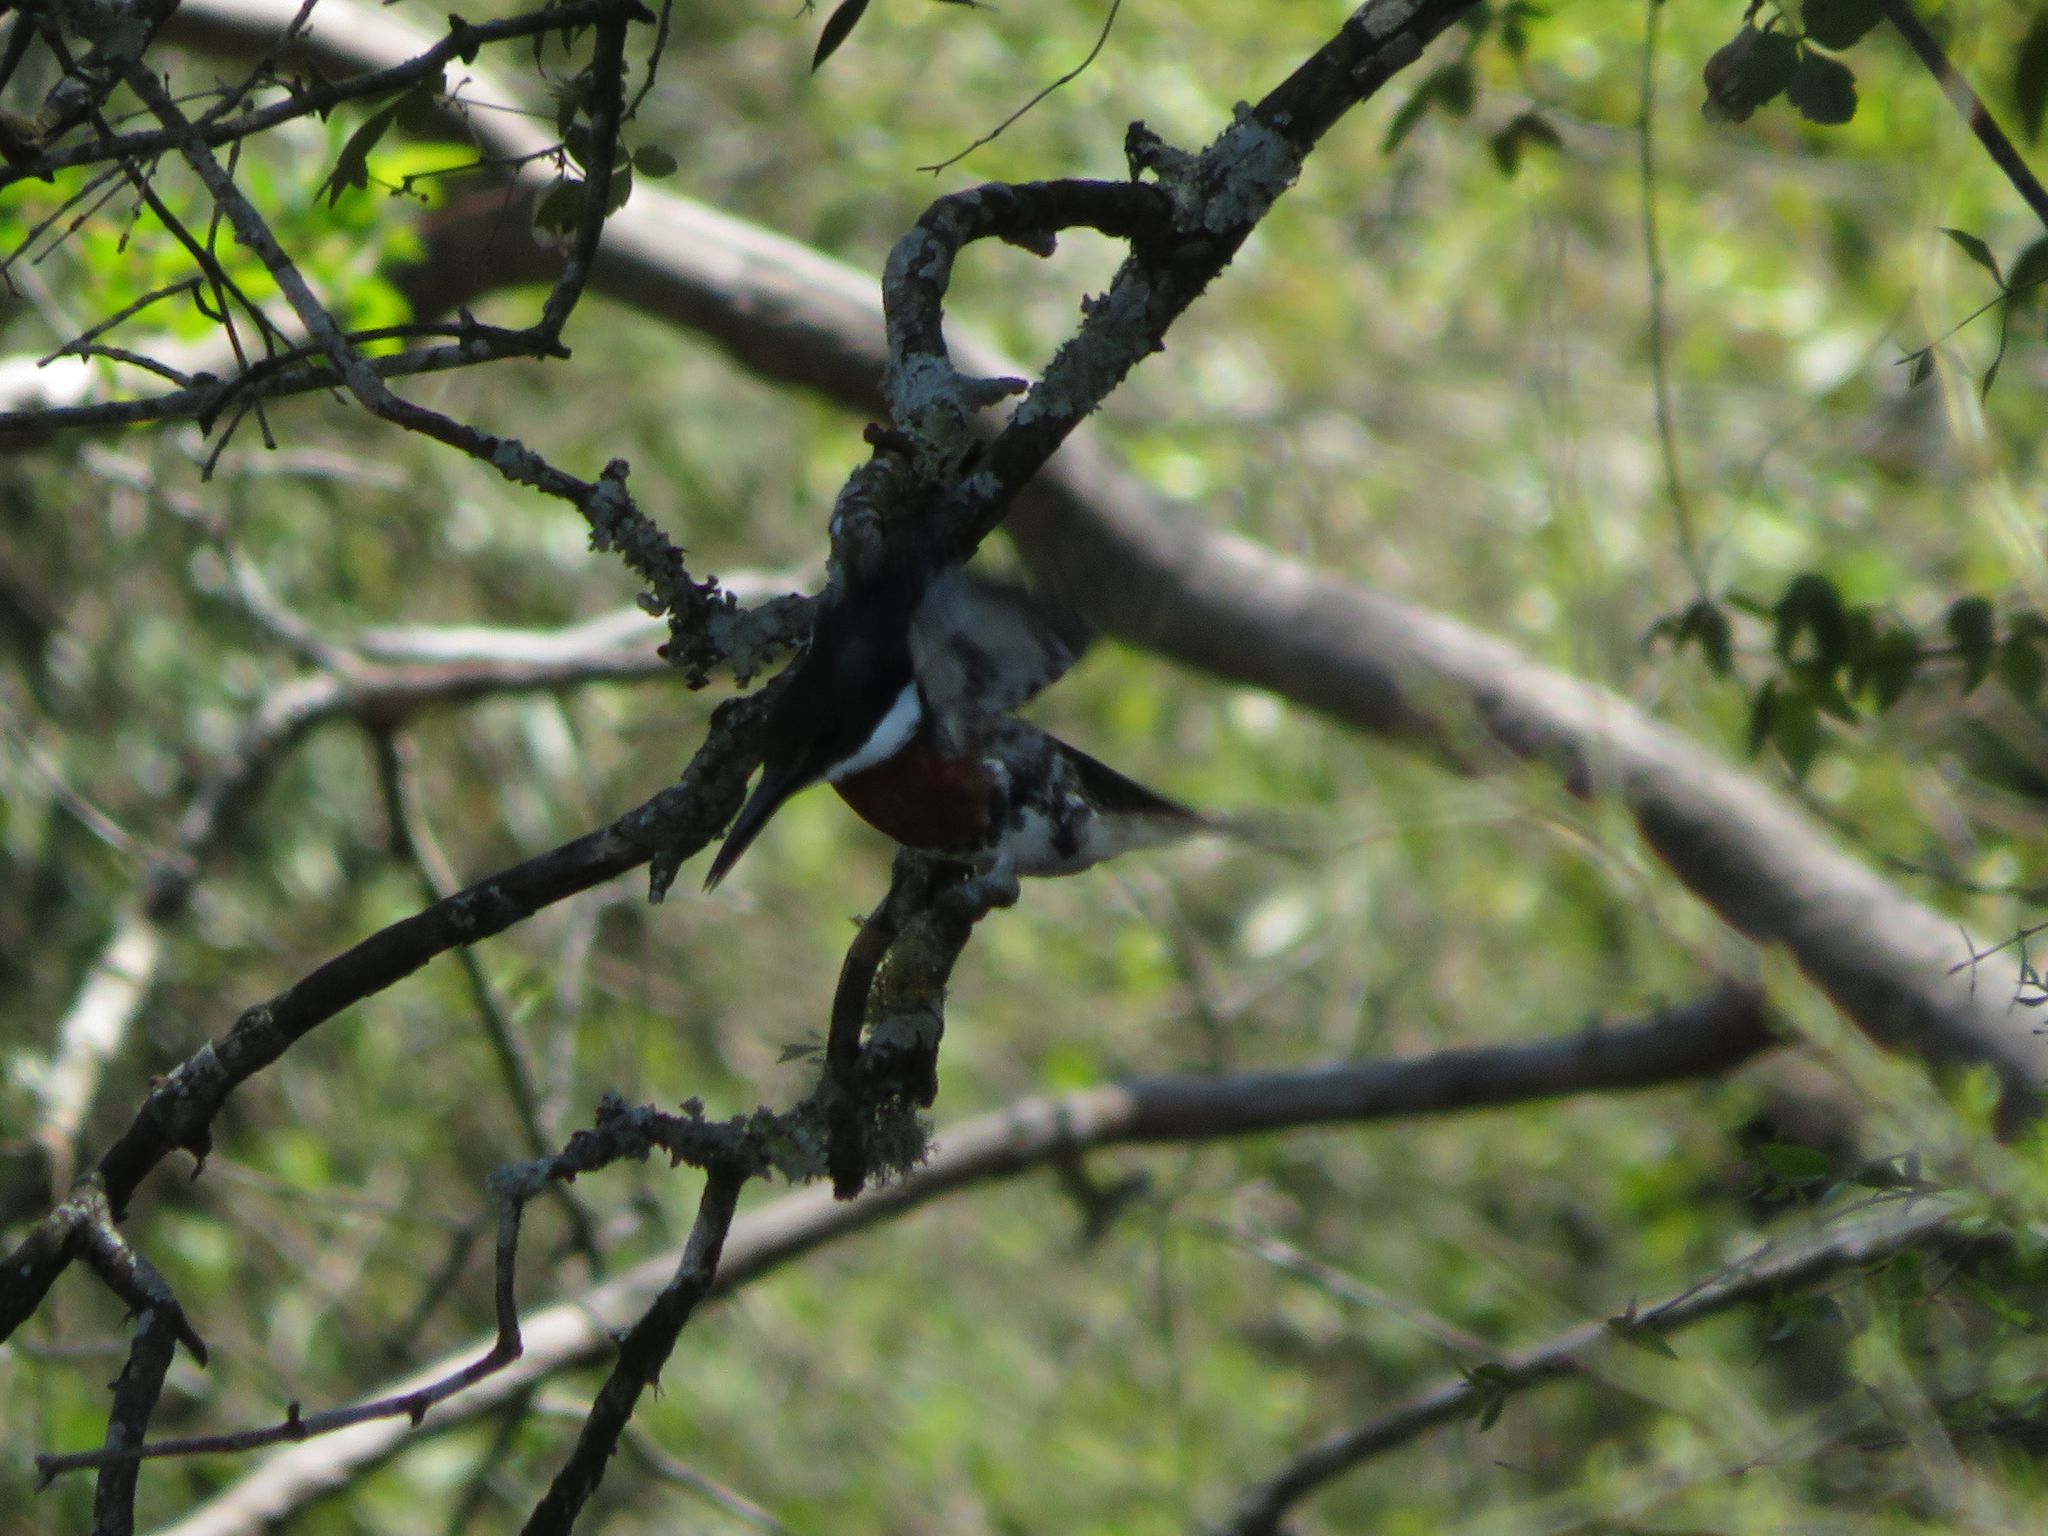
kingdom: Animalia
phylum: Chordata
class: Aves
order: Coraciiformes
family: Alcedinidae
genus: Chloroceryle
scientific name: Chloroceryle americana
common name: Green kingfisher
